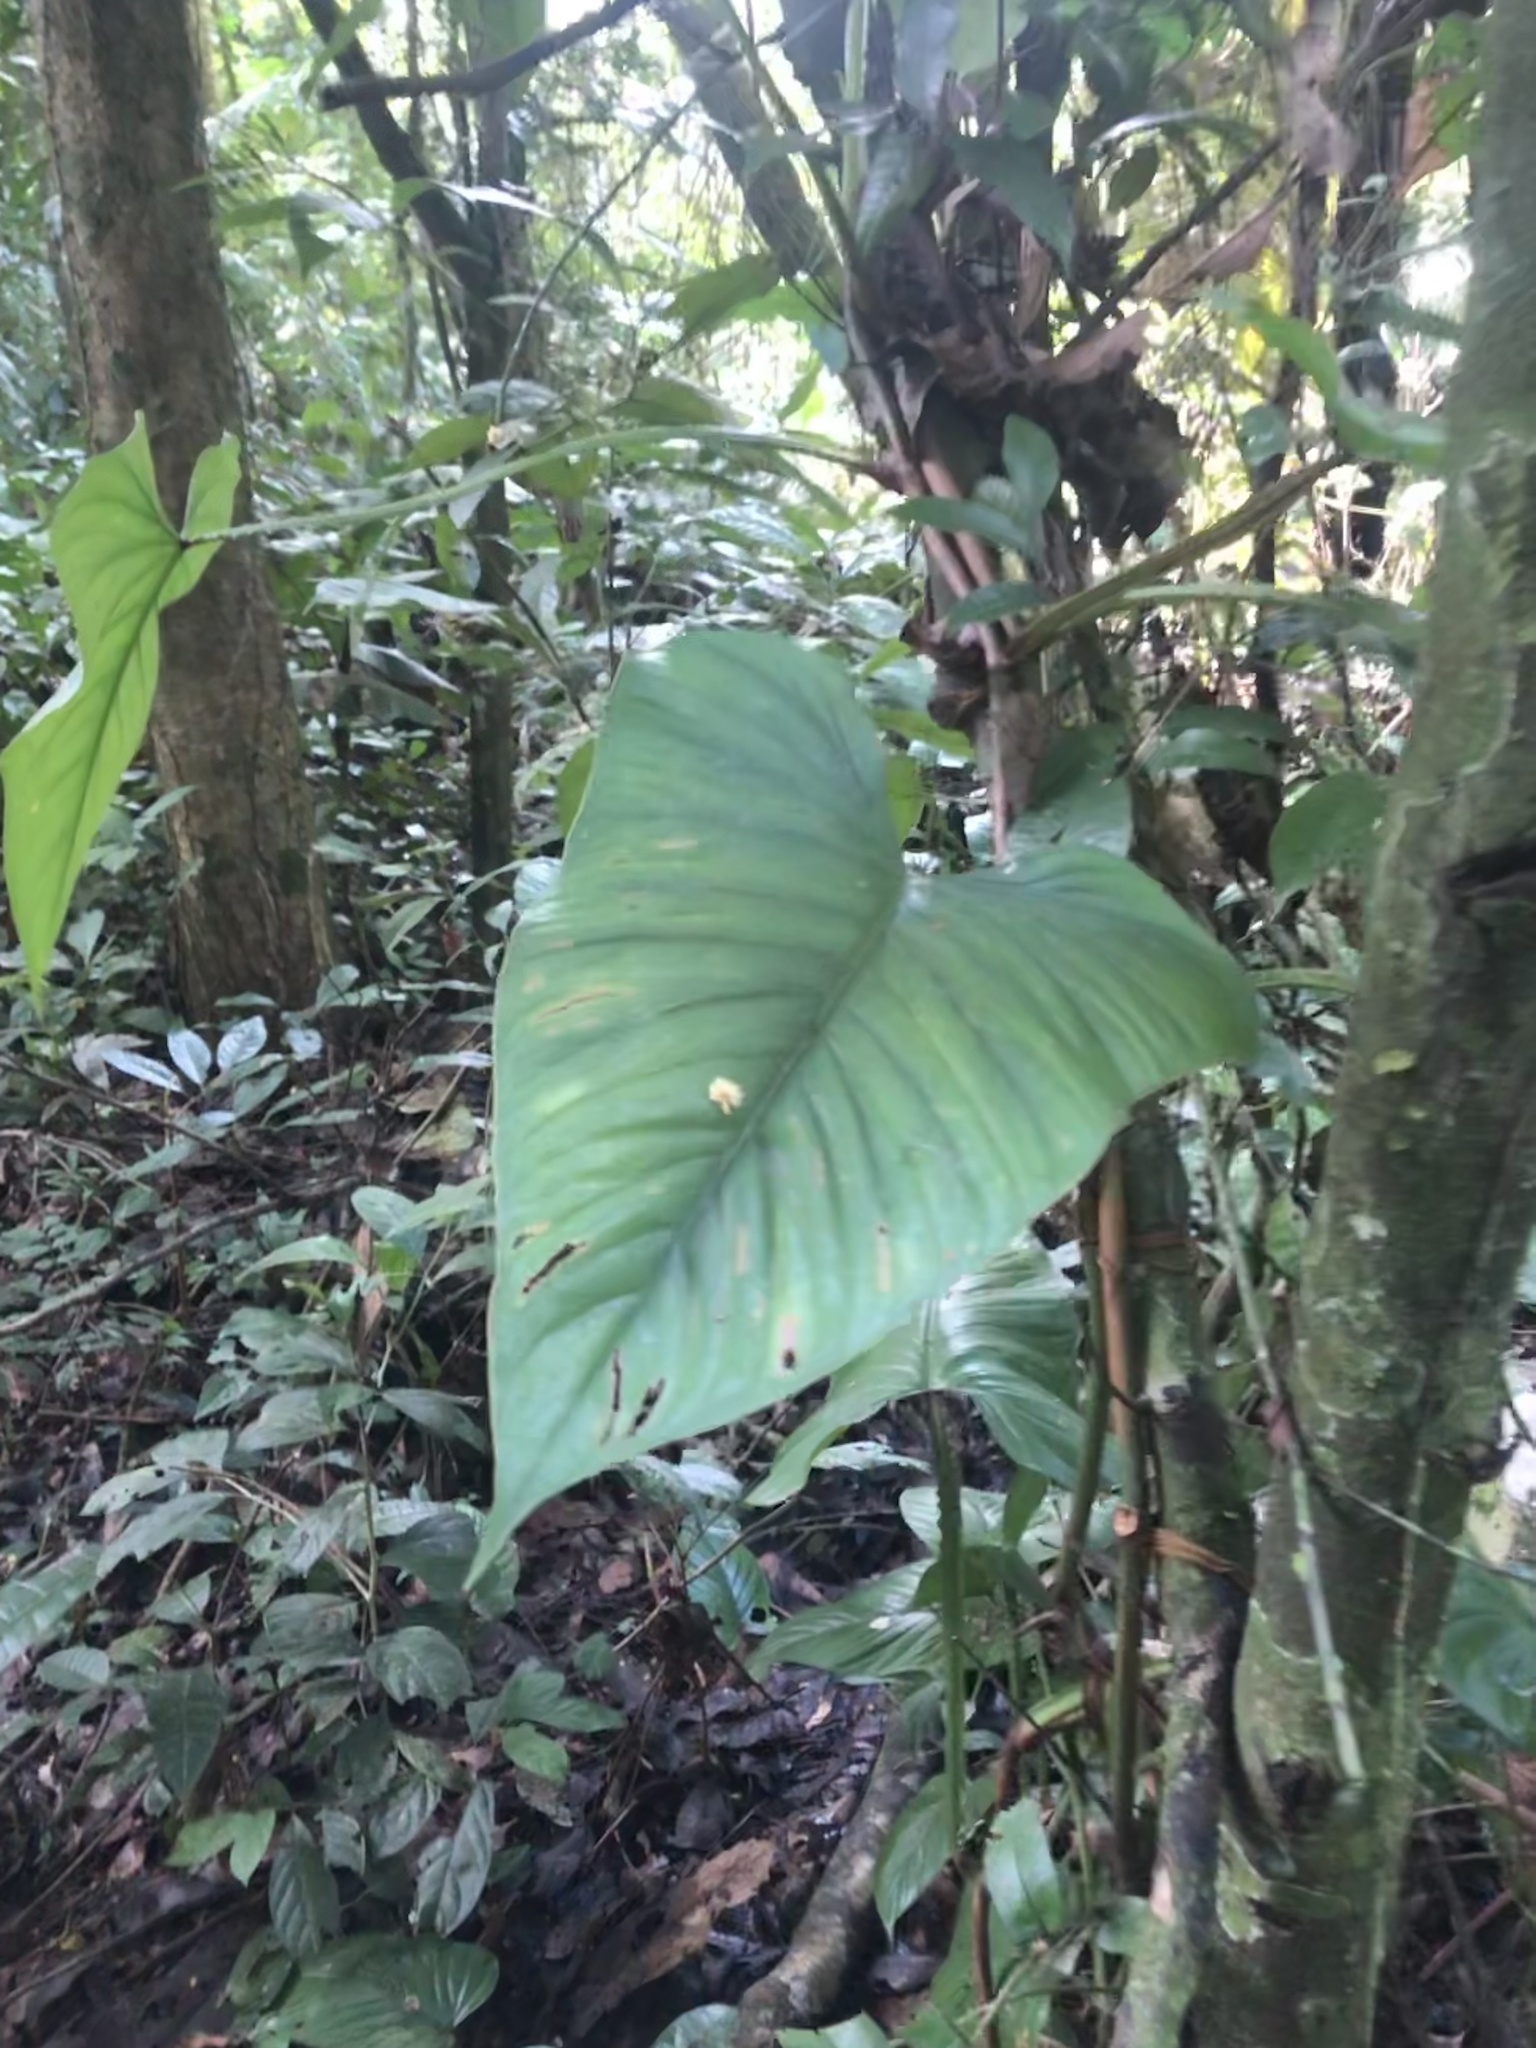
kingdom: Plantae
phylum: Tracheophyta
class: Liliopsida
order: Alismatales
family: Araceae
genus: Philodendron
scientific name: Philodendron ernestii
